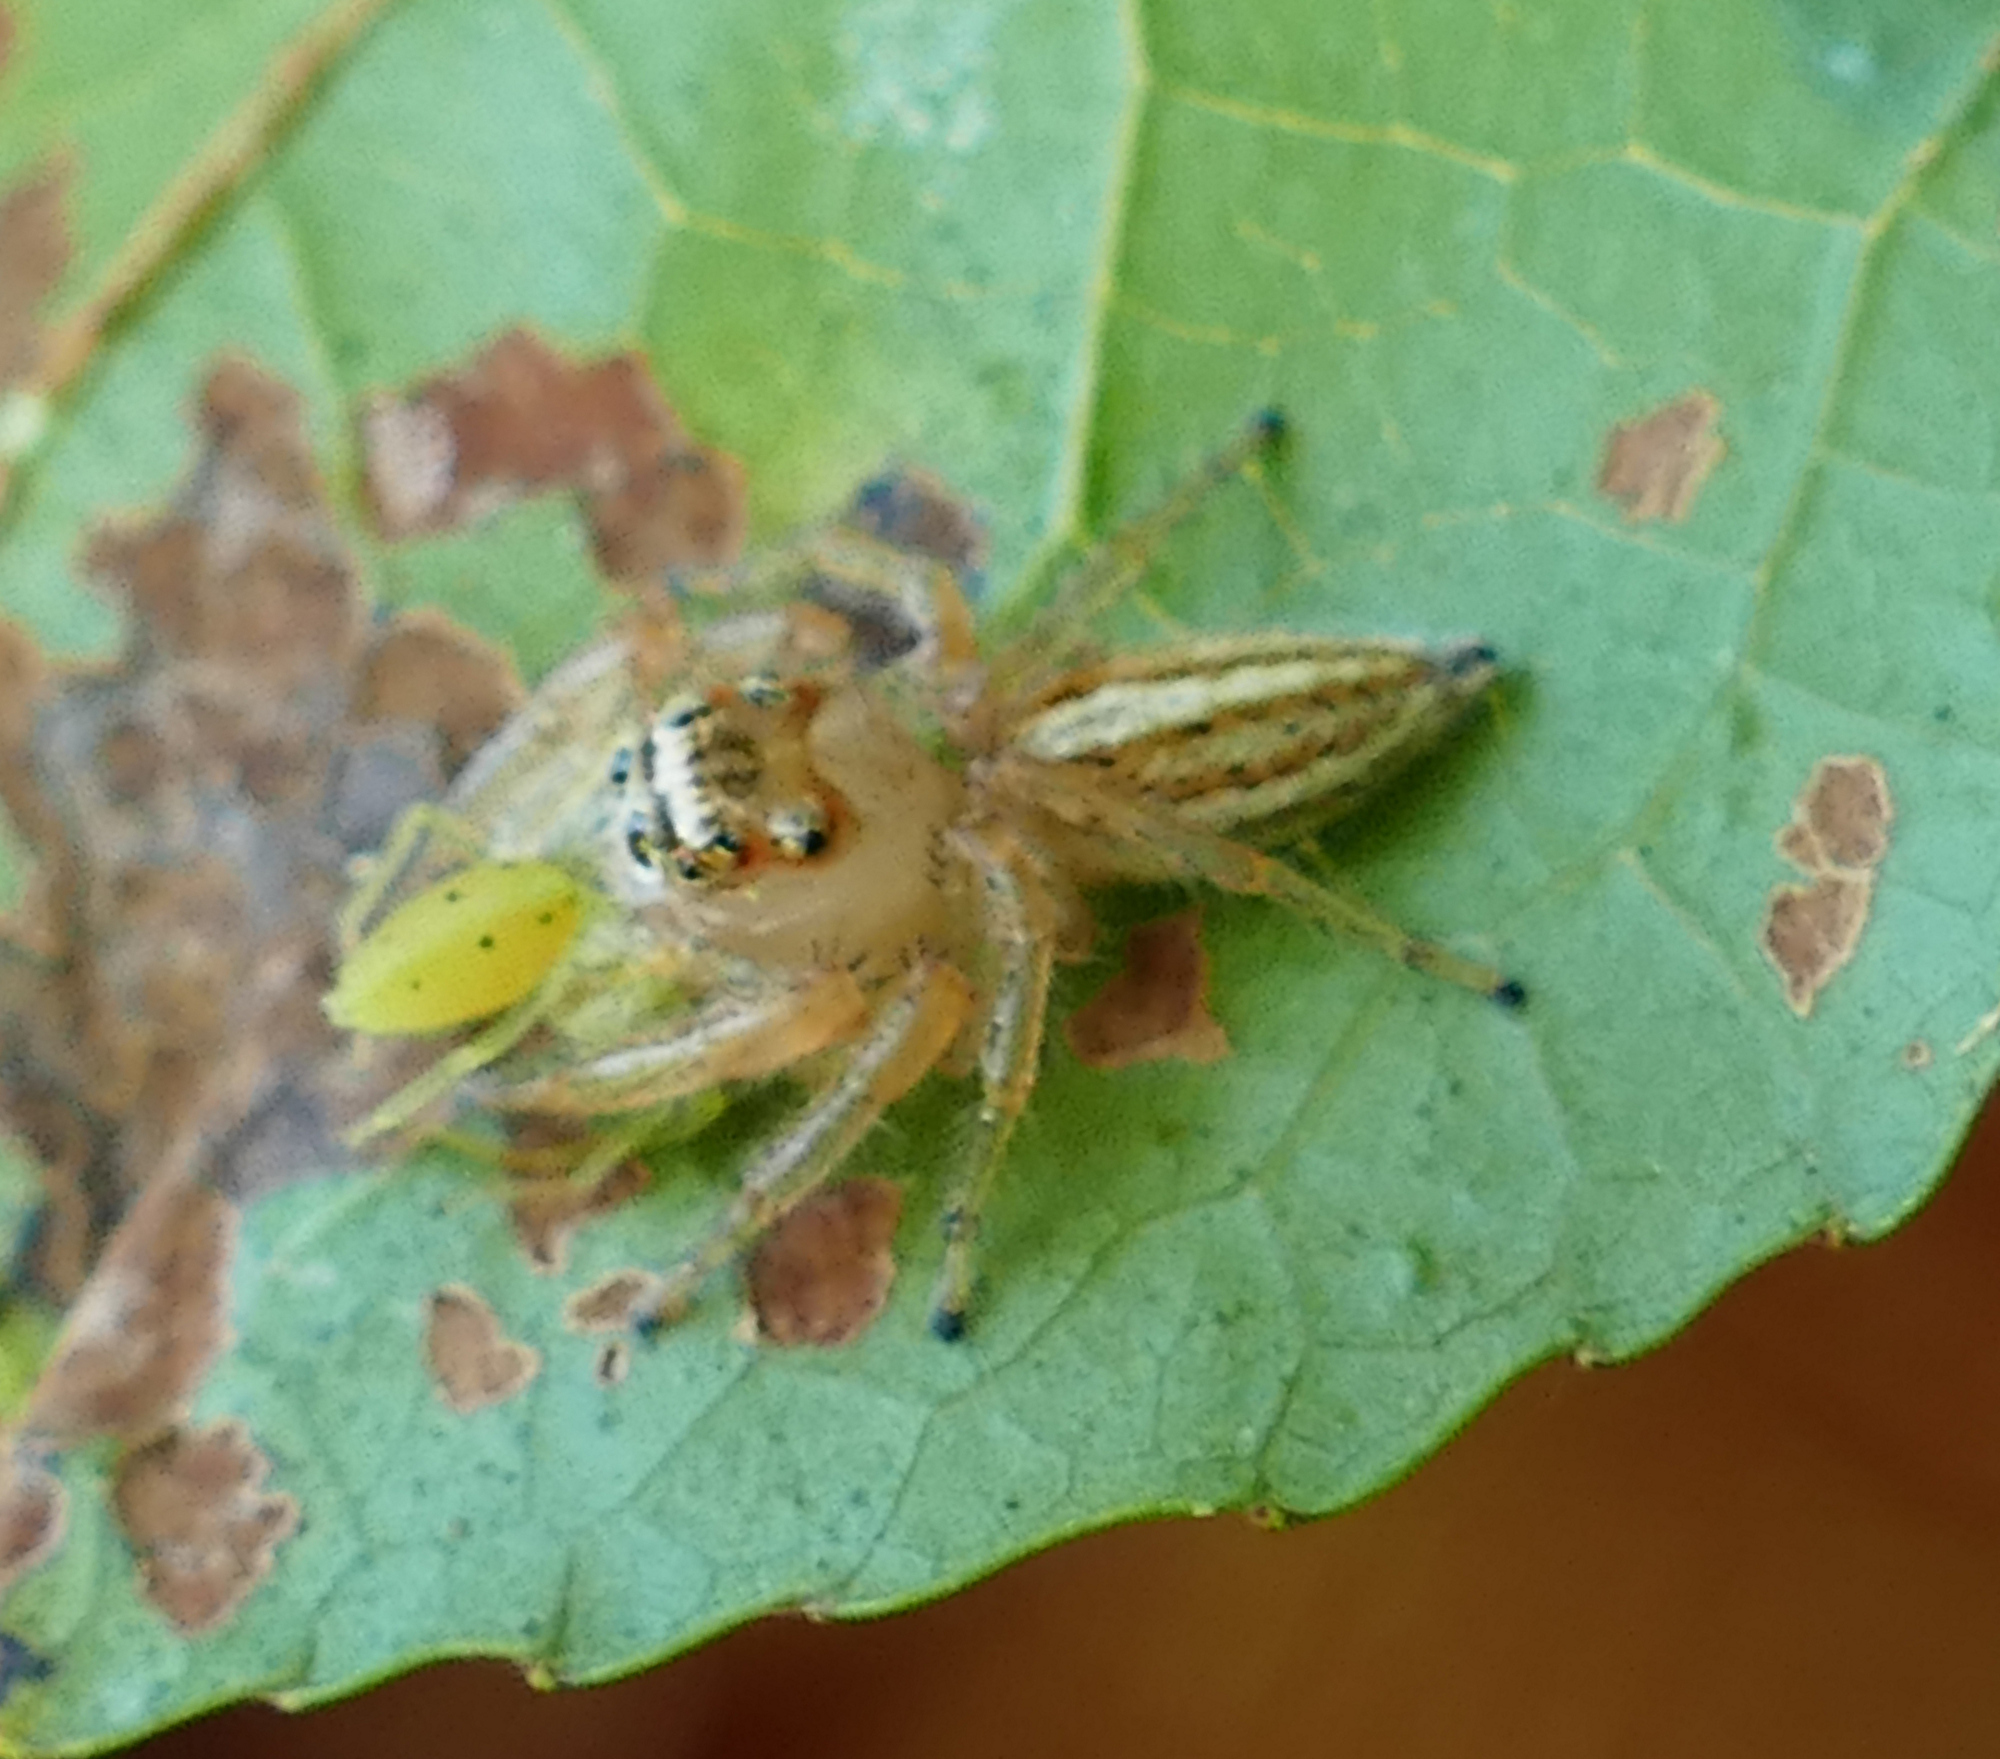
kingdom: Animalia
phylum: Arthropoda
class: Arachnida
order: Araneae
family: Salticidae
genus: Lyssomanes
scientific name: Lyssomanes viridis
